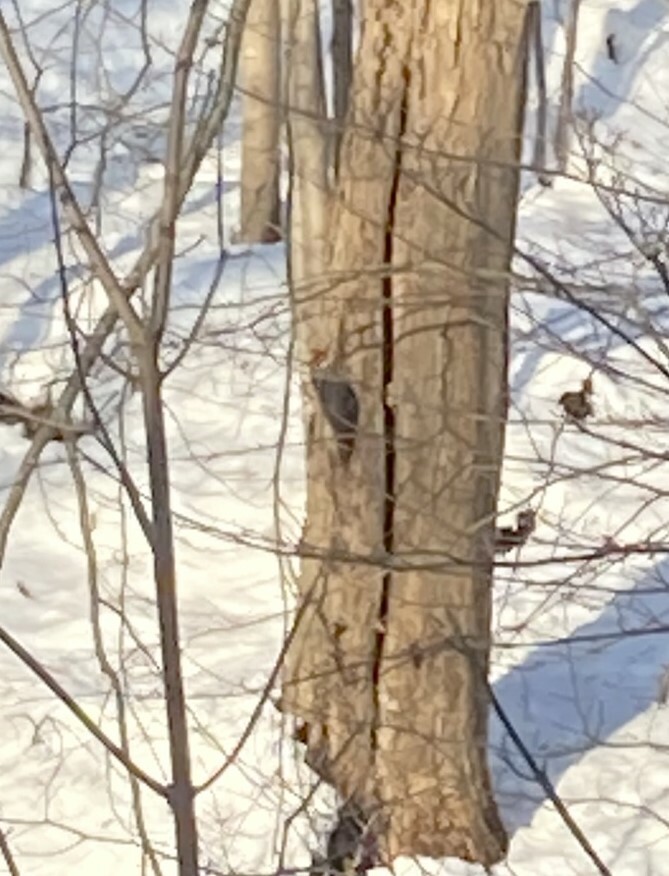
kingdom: Animalia
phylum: Chordata
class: Aves
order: Piciformes
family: Picidae
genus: Dryocopus
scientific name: Dryocopus pileatus
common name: Pileated woodpecker
